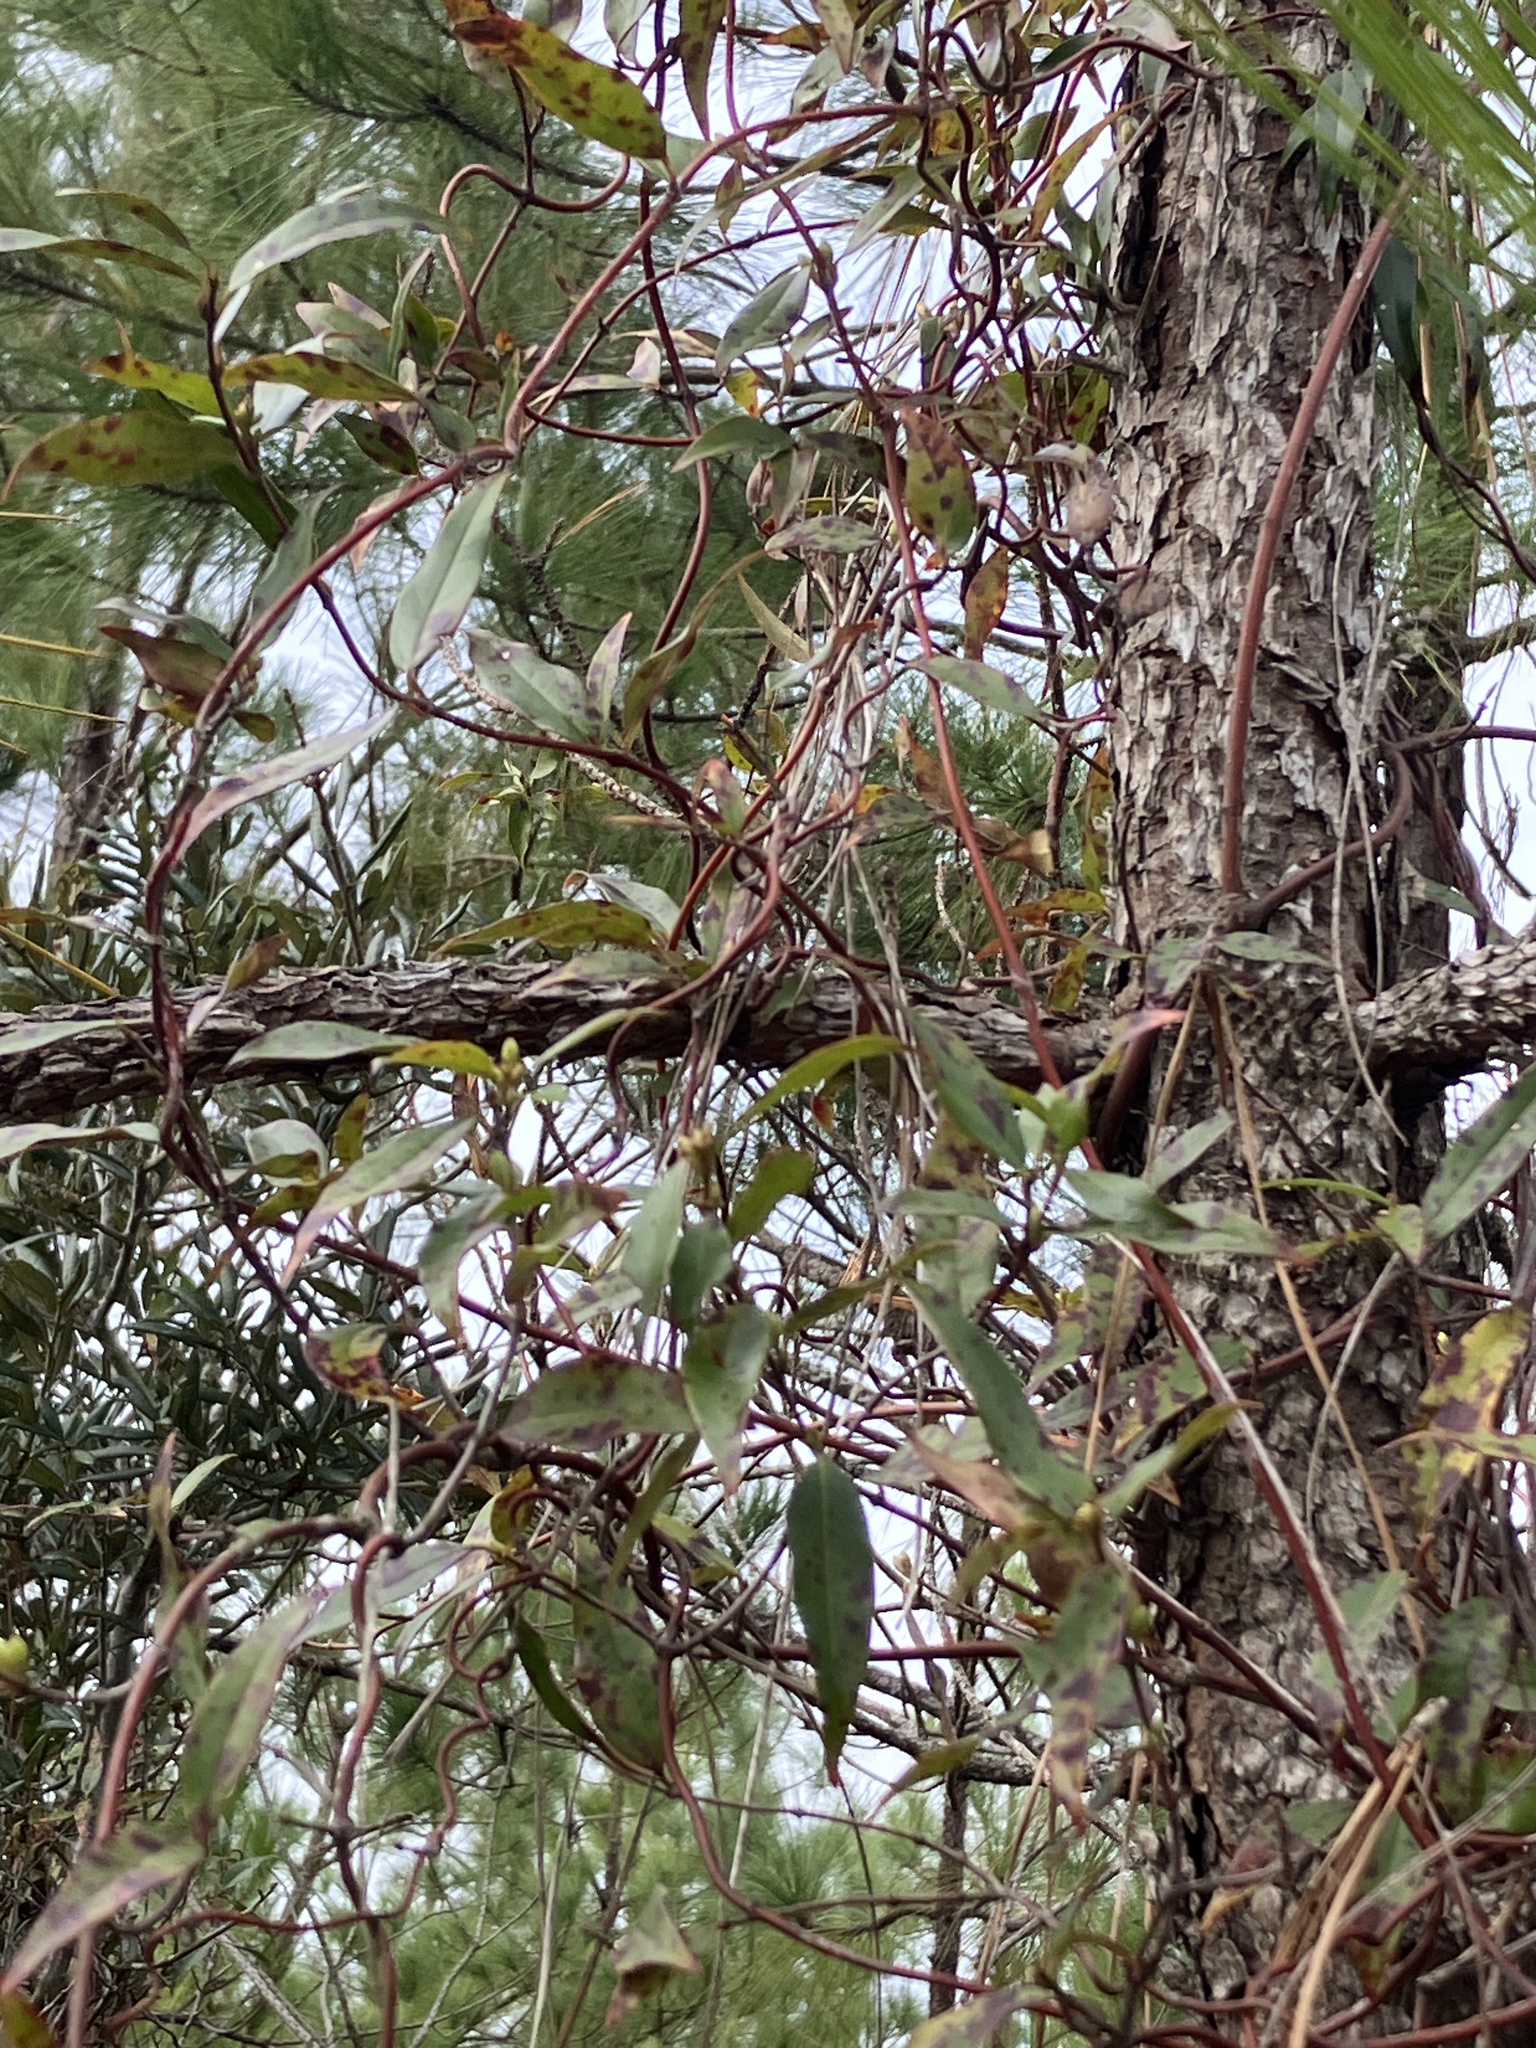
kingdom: Plantae
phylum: Tracheophyta
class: Magnoliopsida
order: Gentianales
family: Gelsemiaceae
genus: Gelsemium
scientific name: Gelsemium sempervirens
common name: Carolina-jasmine
